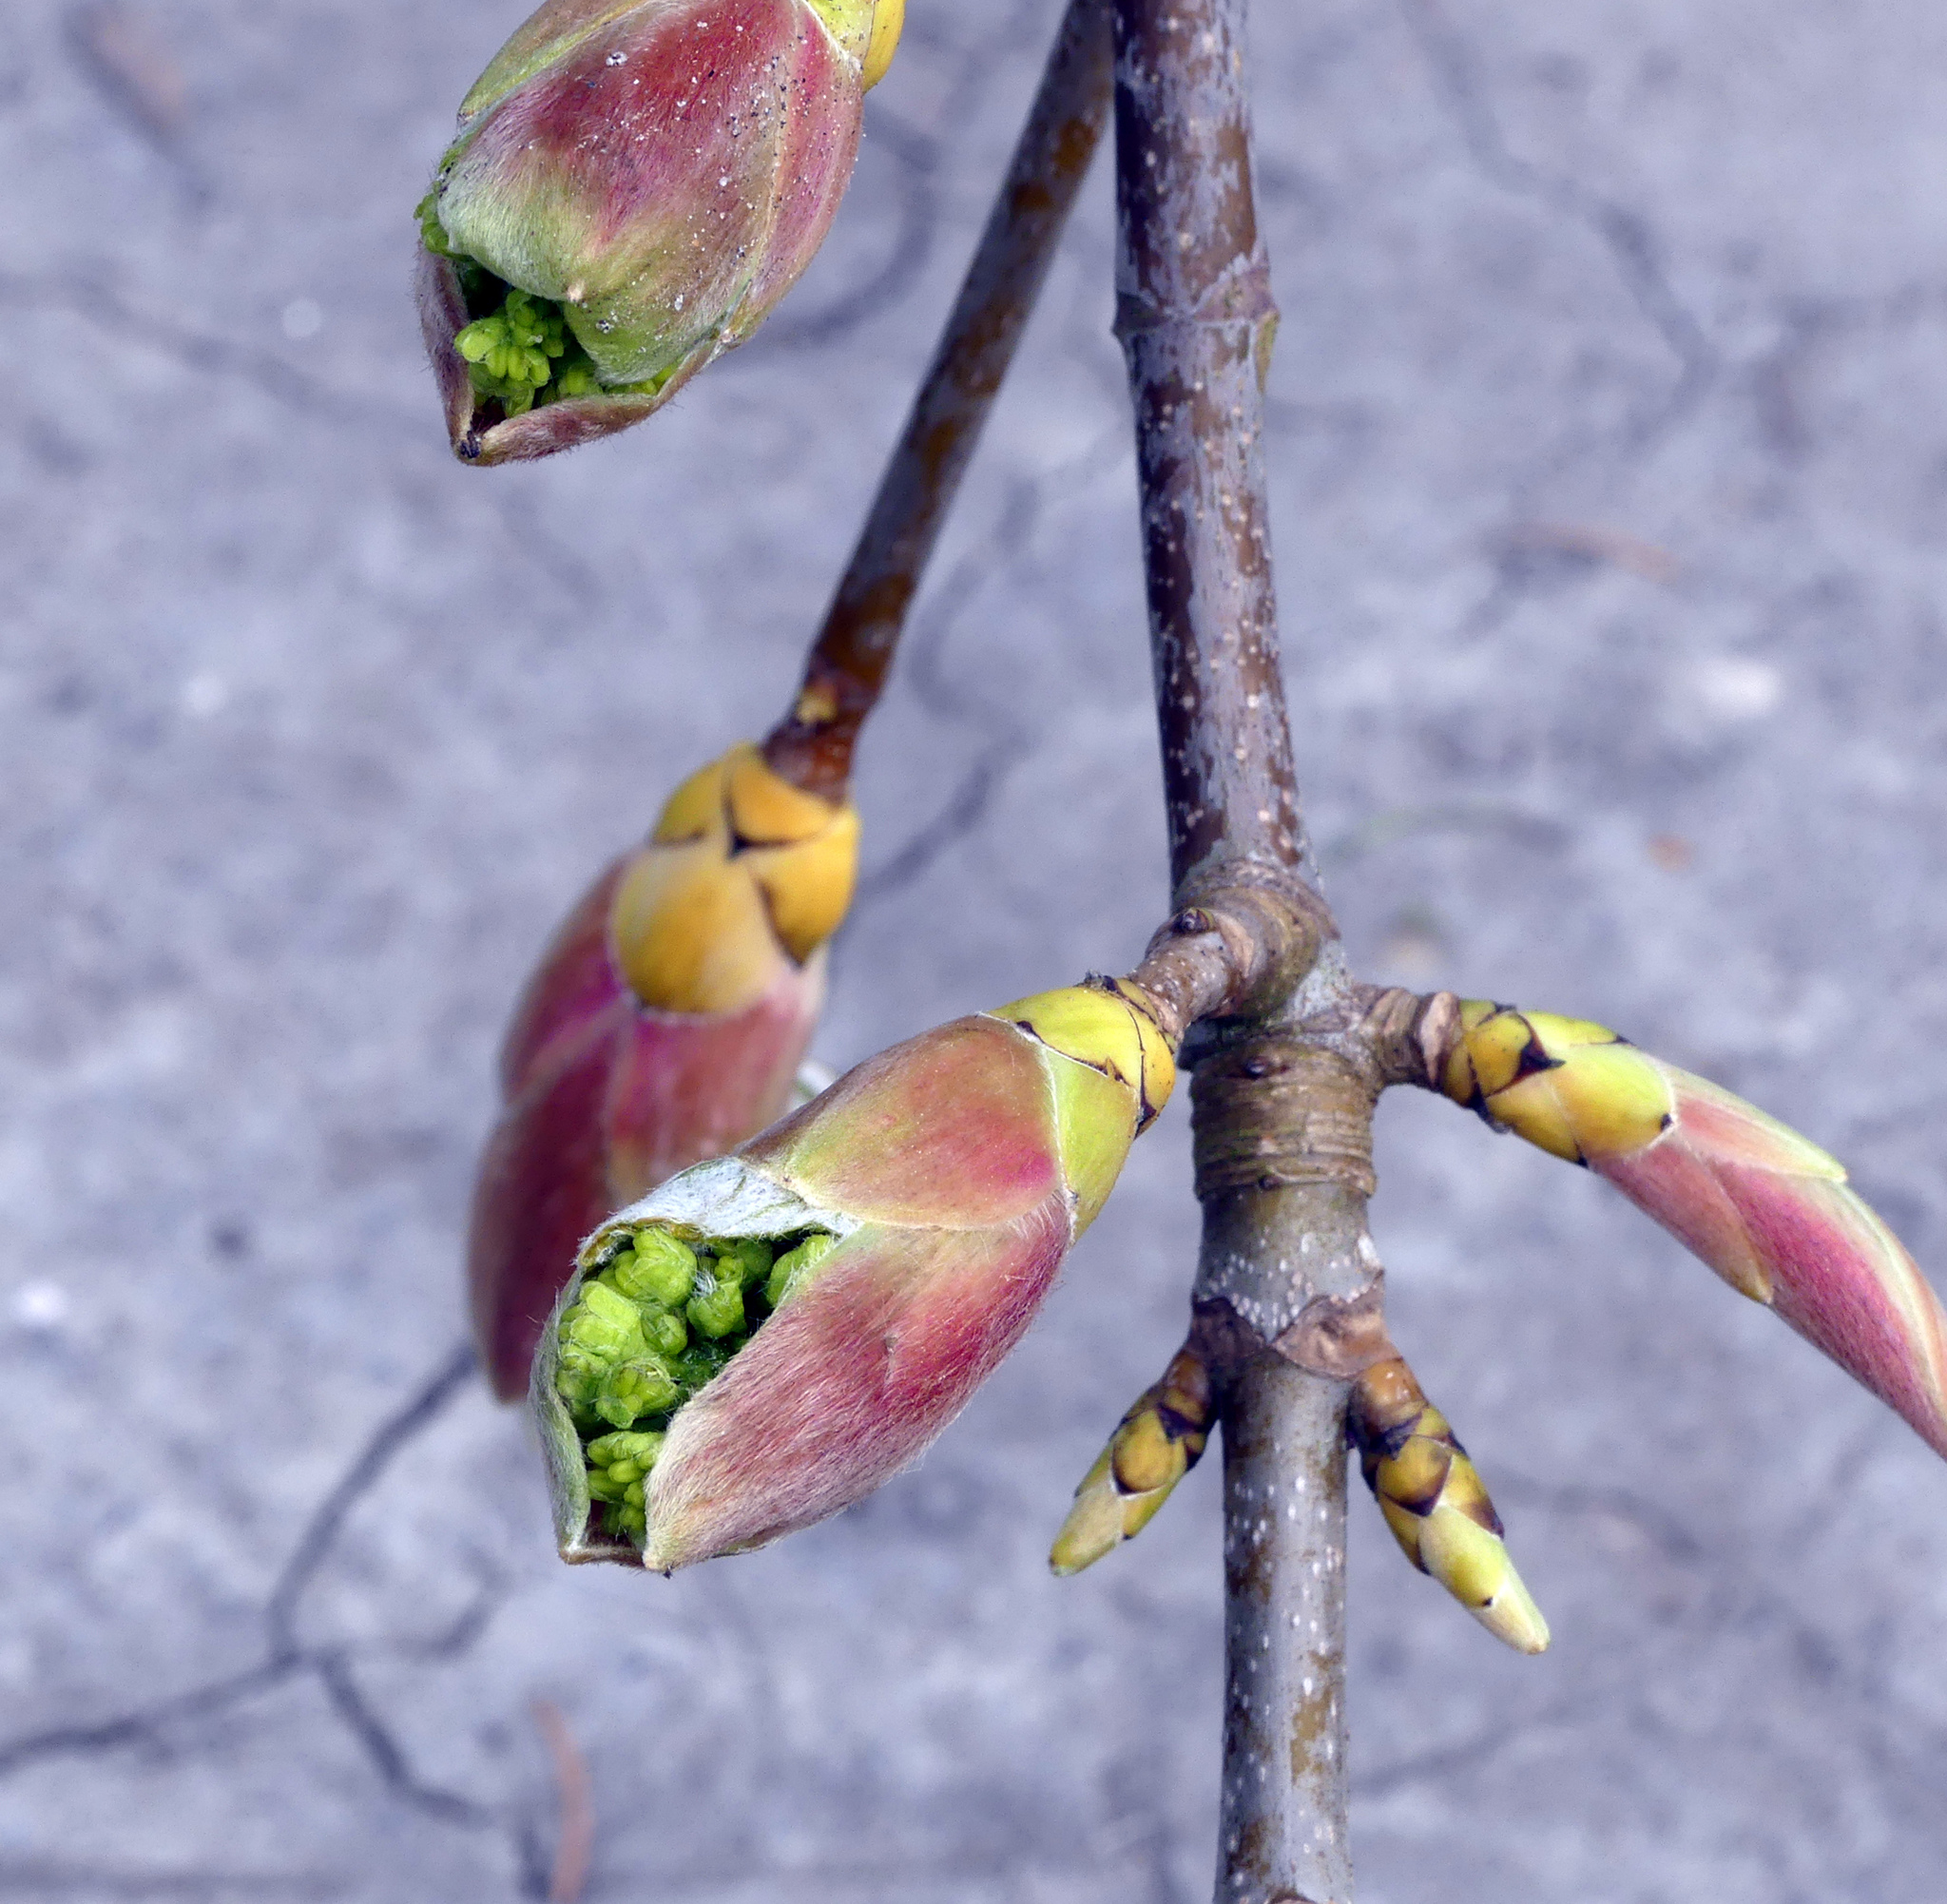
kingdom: Plantae
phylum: Tracheophyta
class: Magnoliopsida
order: Sapindales
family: Sapindaceae
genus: Acer
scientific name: Acer pseudoplatanus
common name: Sycamore
